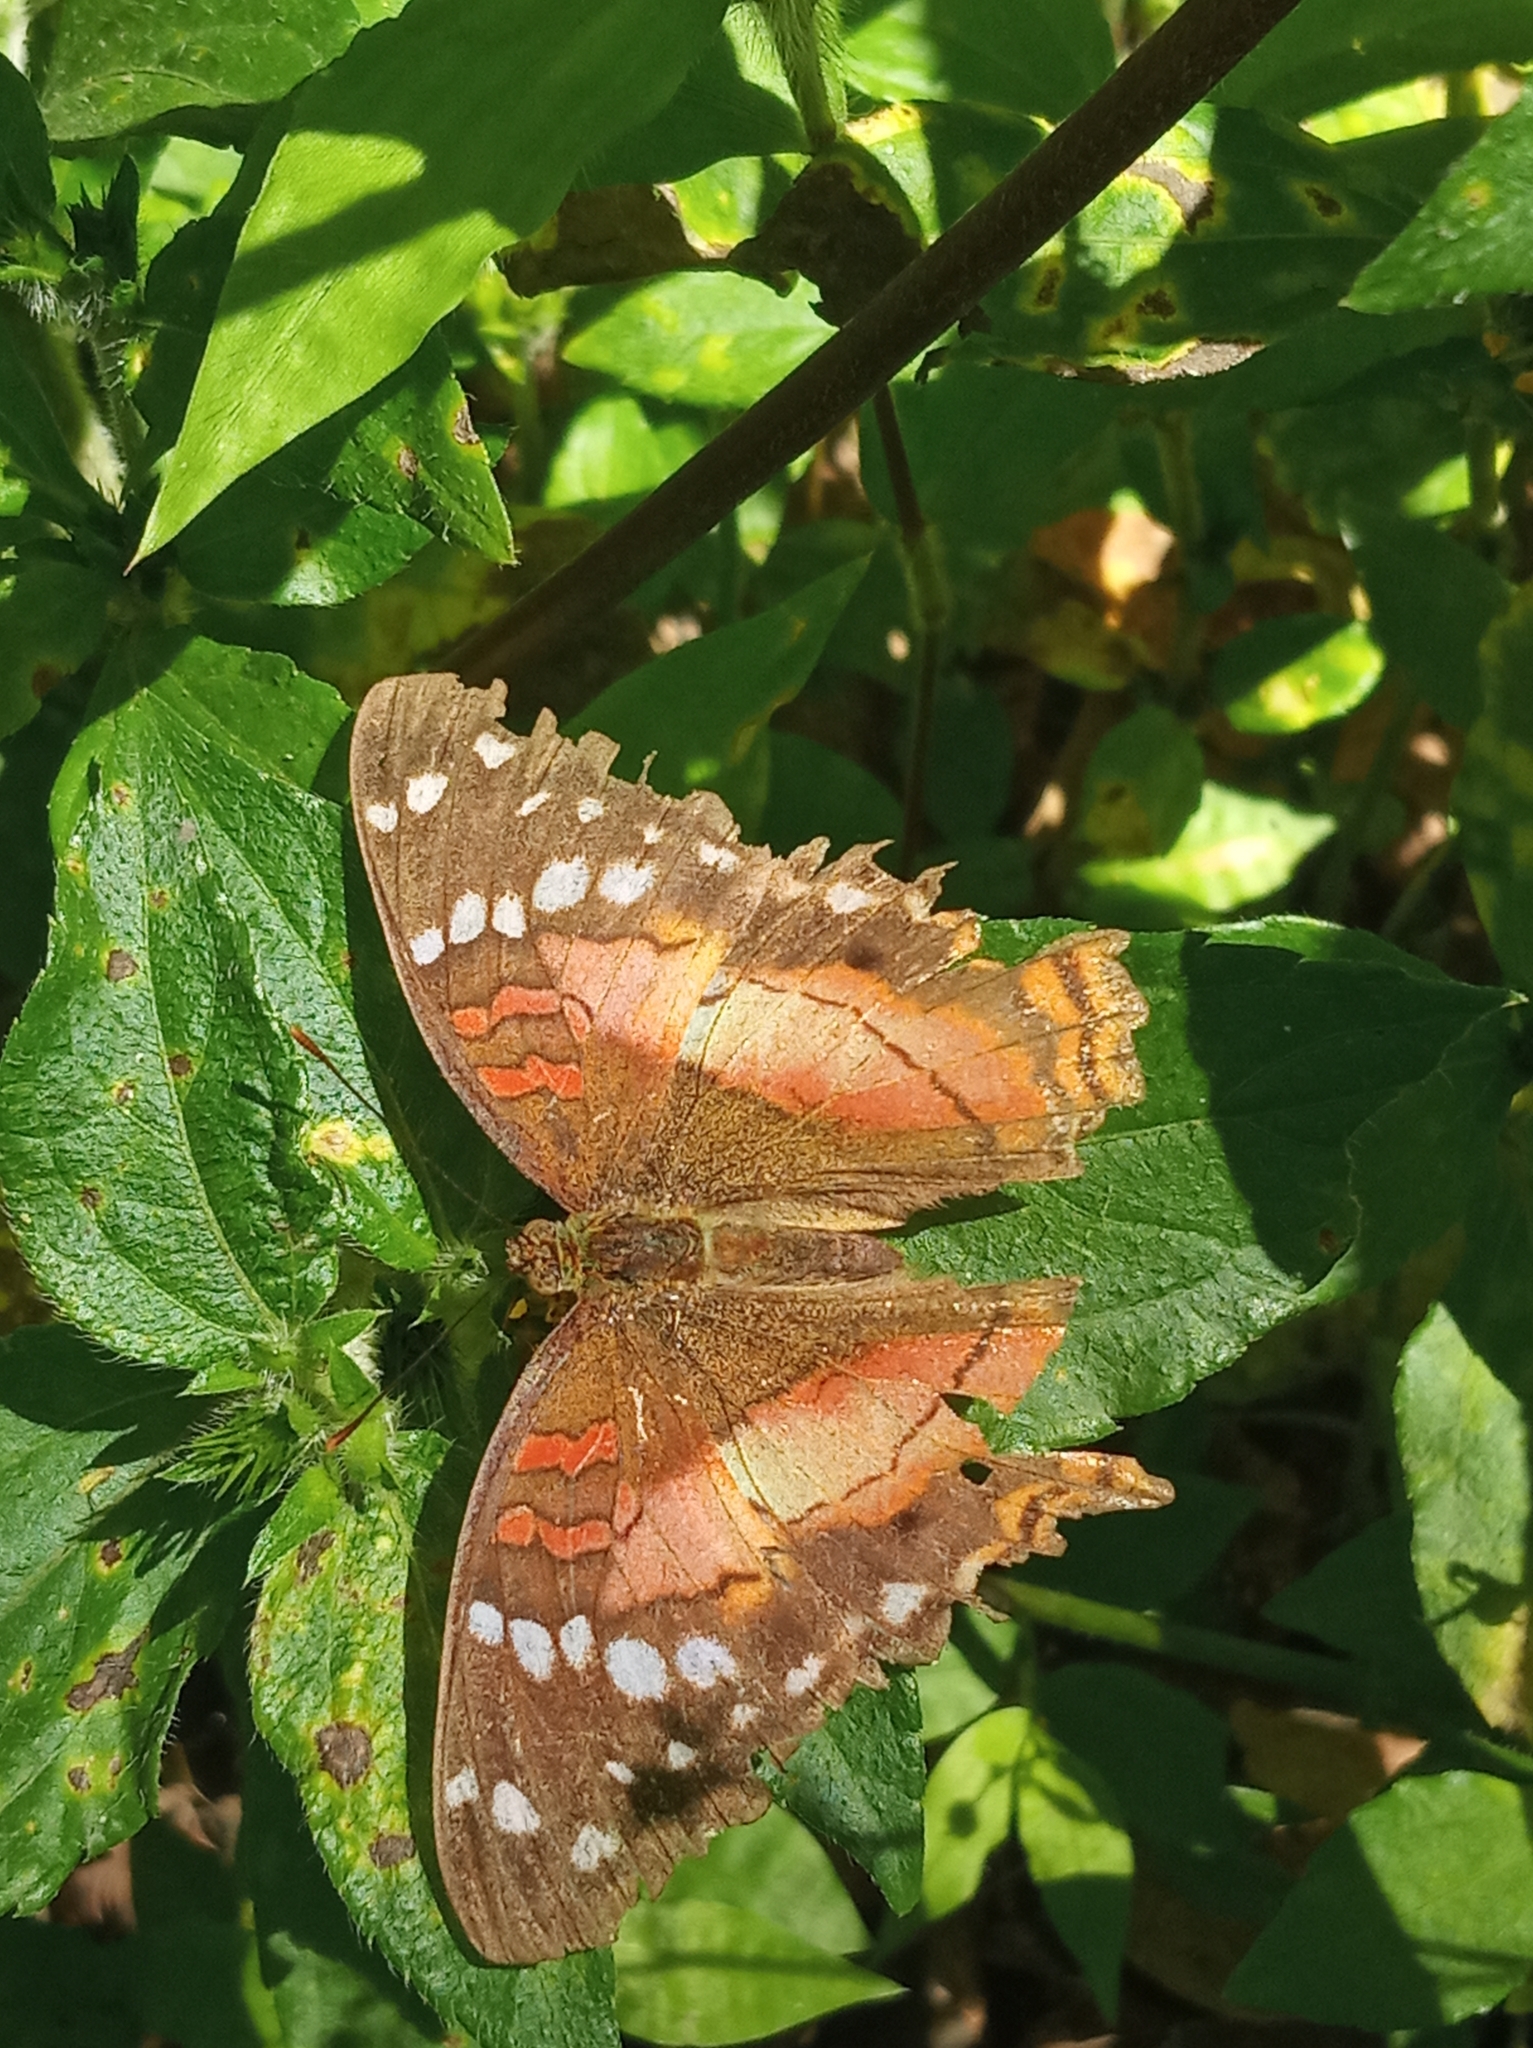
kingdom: Animalia
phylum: Arthropoda
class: Insecta
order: Lepidoptera
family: Nymphalidae
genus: Anartia
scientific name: Anartia amathea
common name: Red peacock
